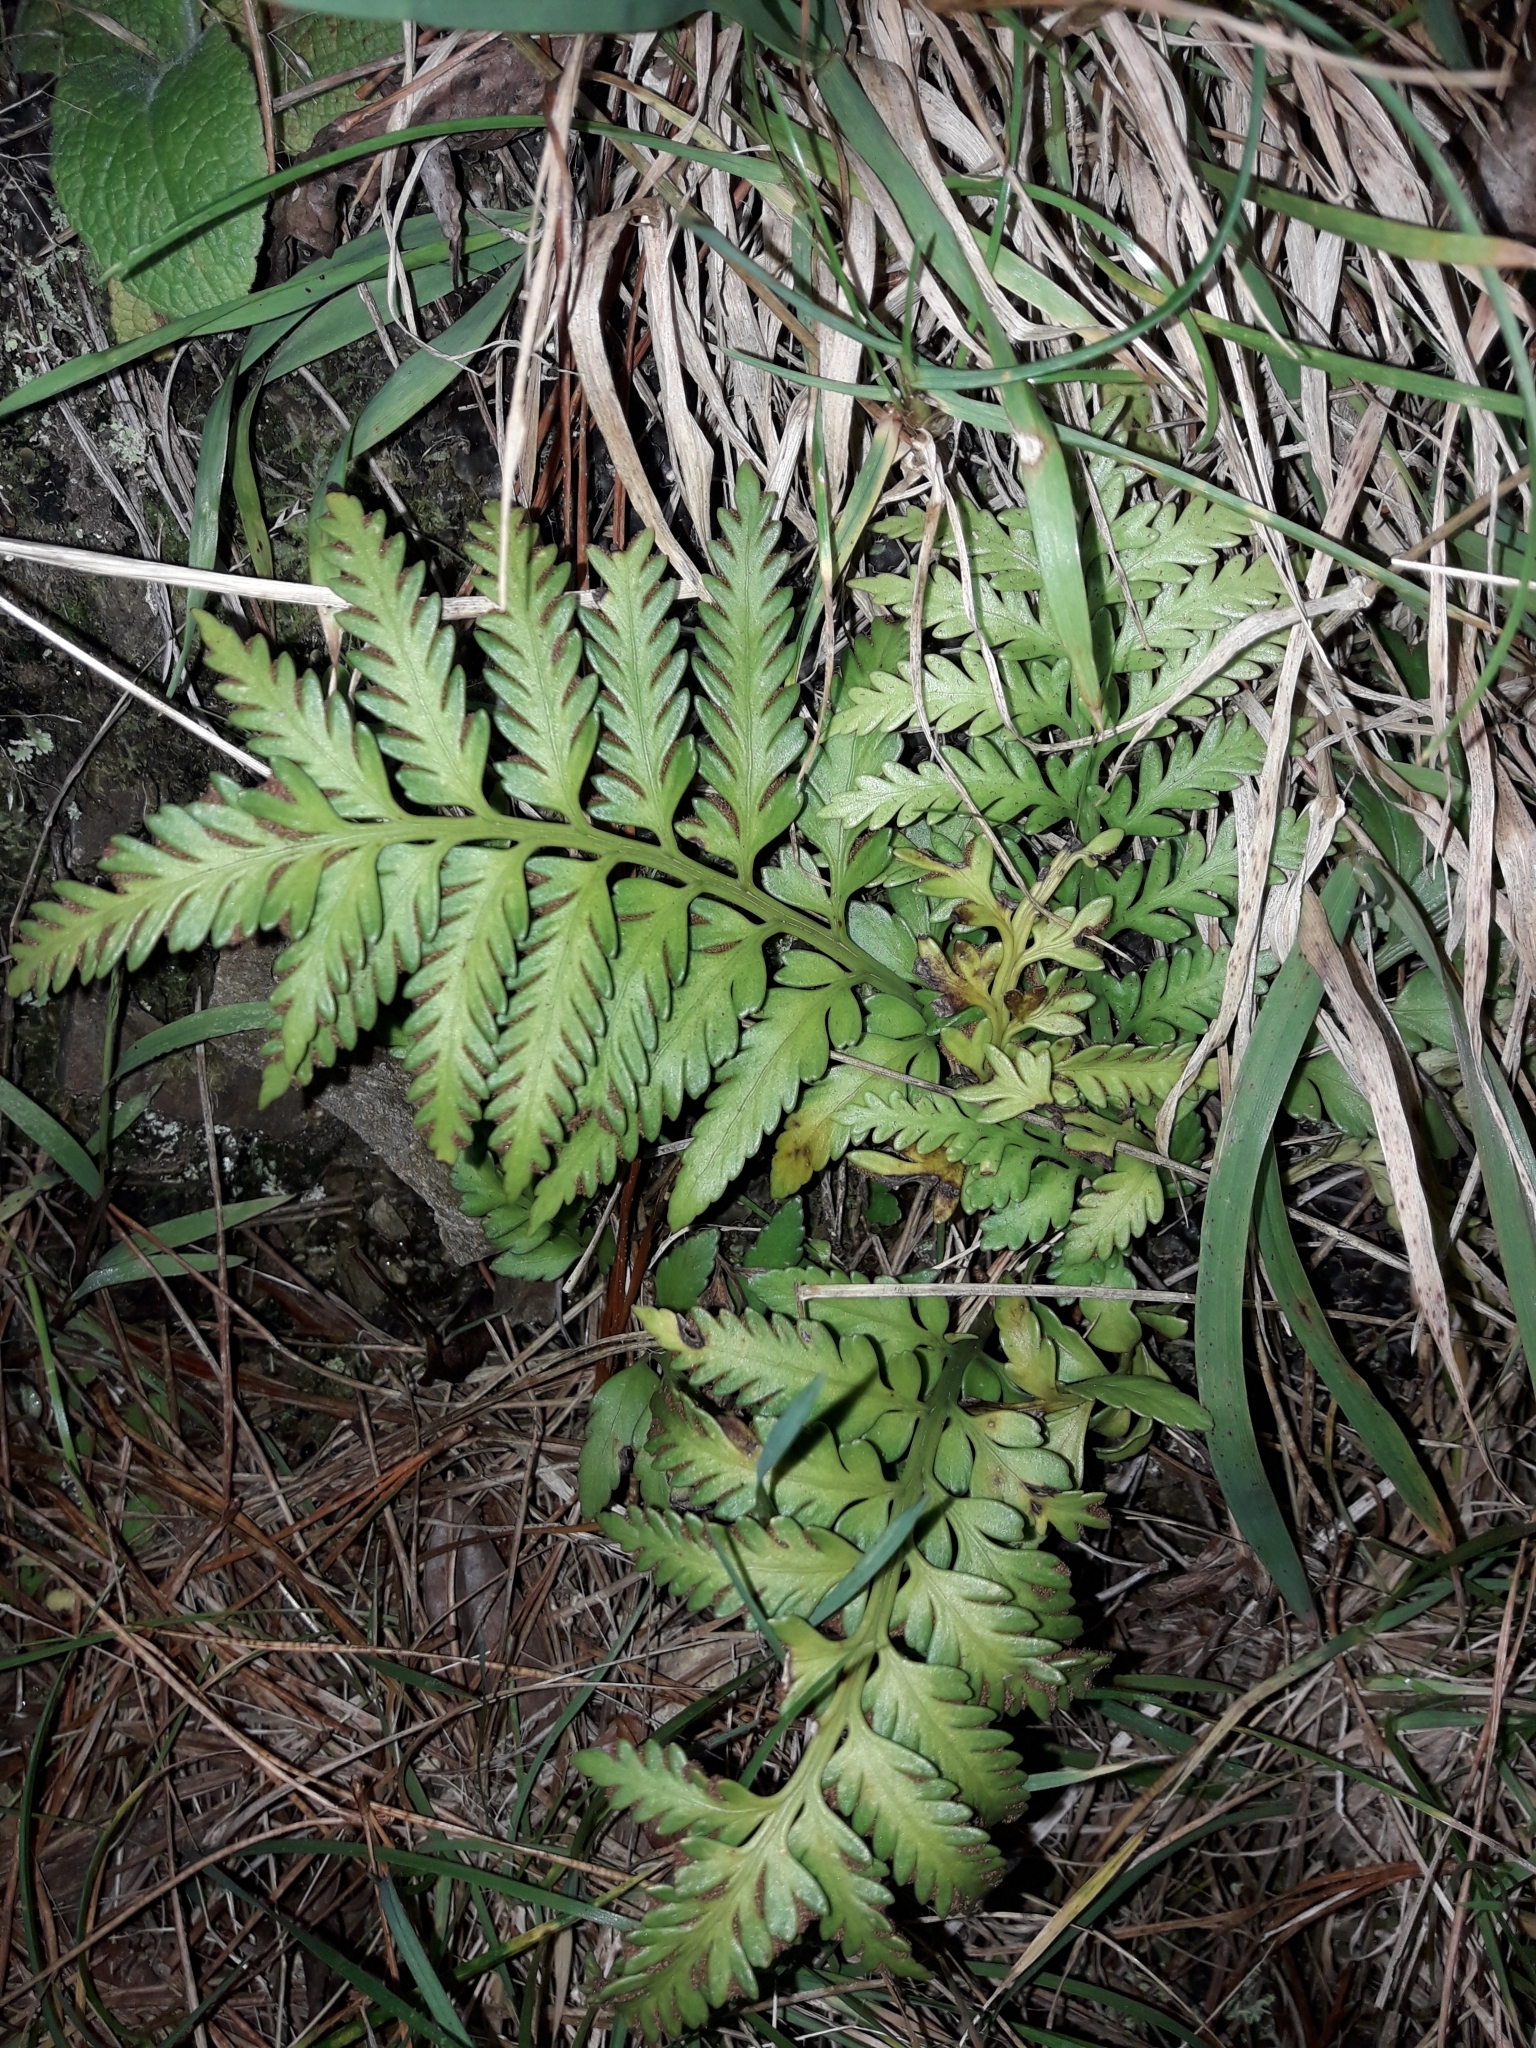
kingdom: Plantae
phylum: Tracheophyta
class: Polypodiopsida
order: Polypodiales
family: Aspleniaceae
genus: Asplenium
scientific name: Asplenium appendiculatum
